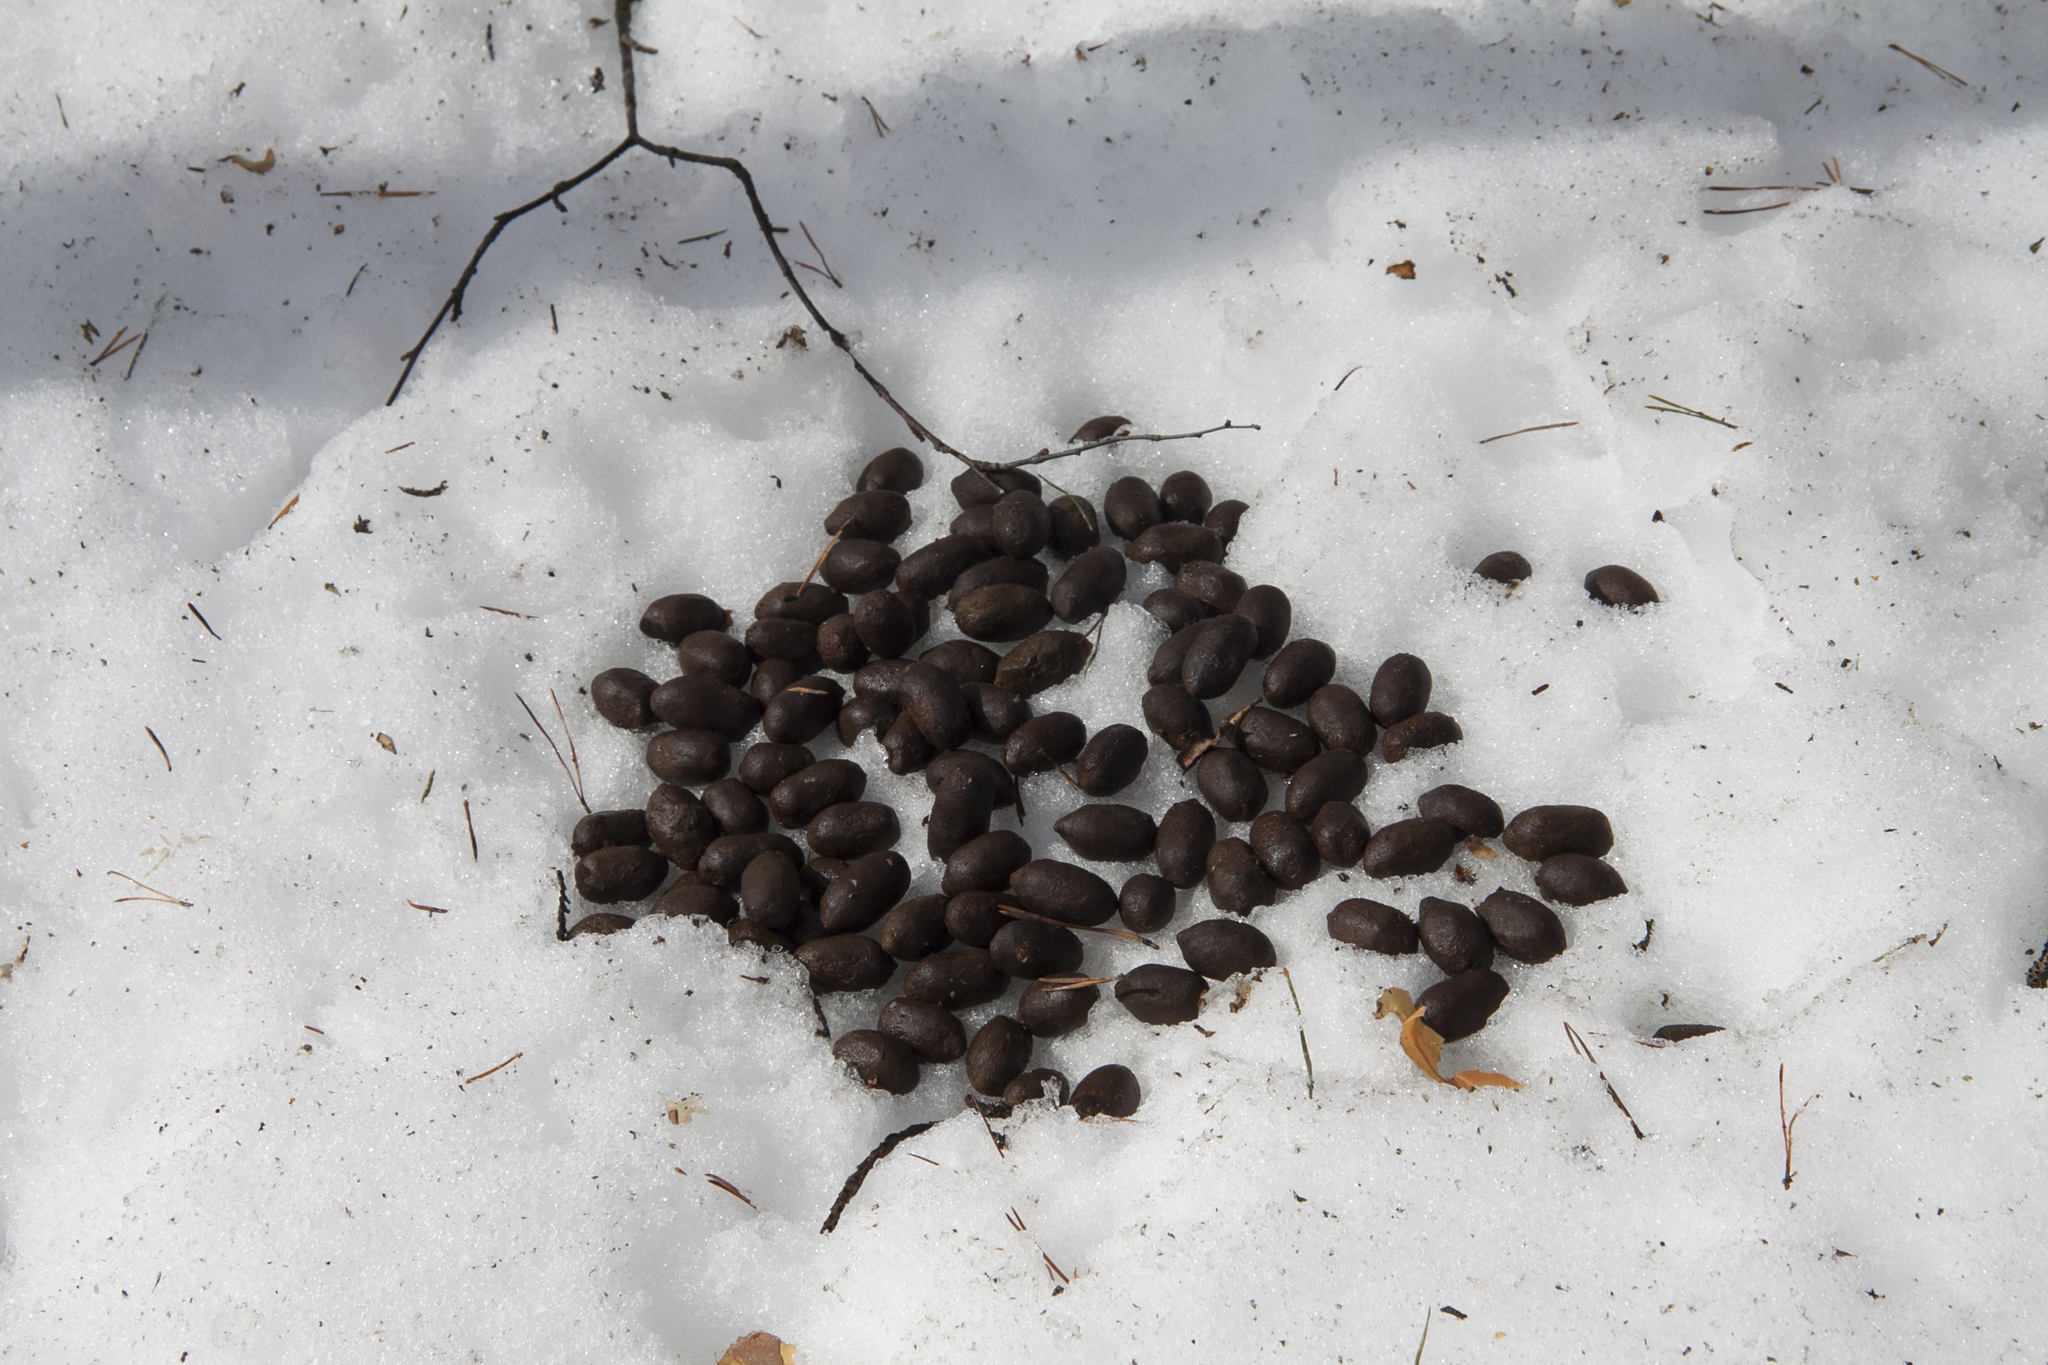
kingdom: Animalia
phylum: Chordata
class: Mammalia
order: Artiodactyla
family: Cervidae
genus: Alces
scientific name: Alces alces
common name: Moose
